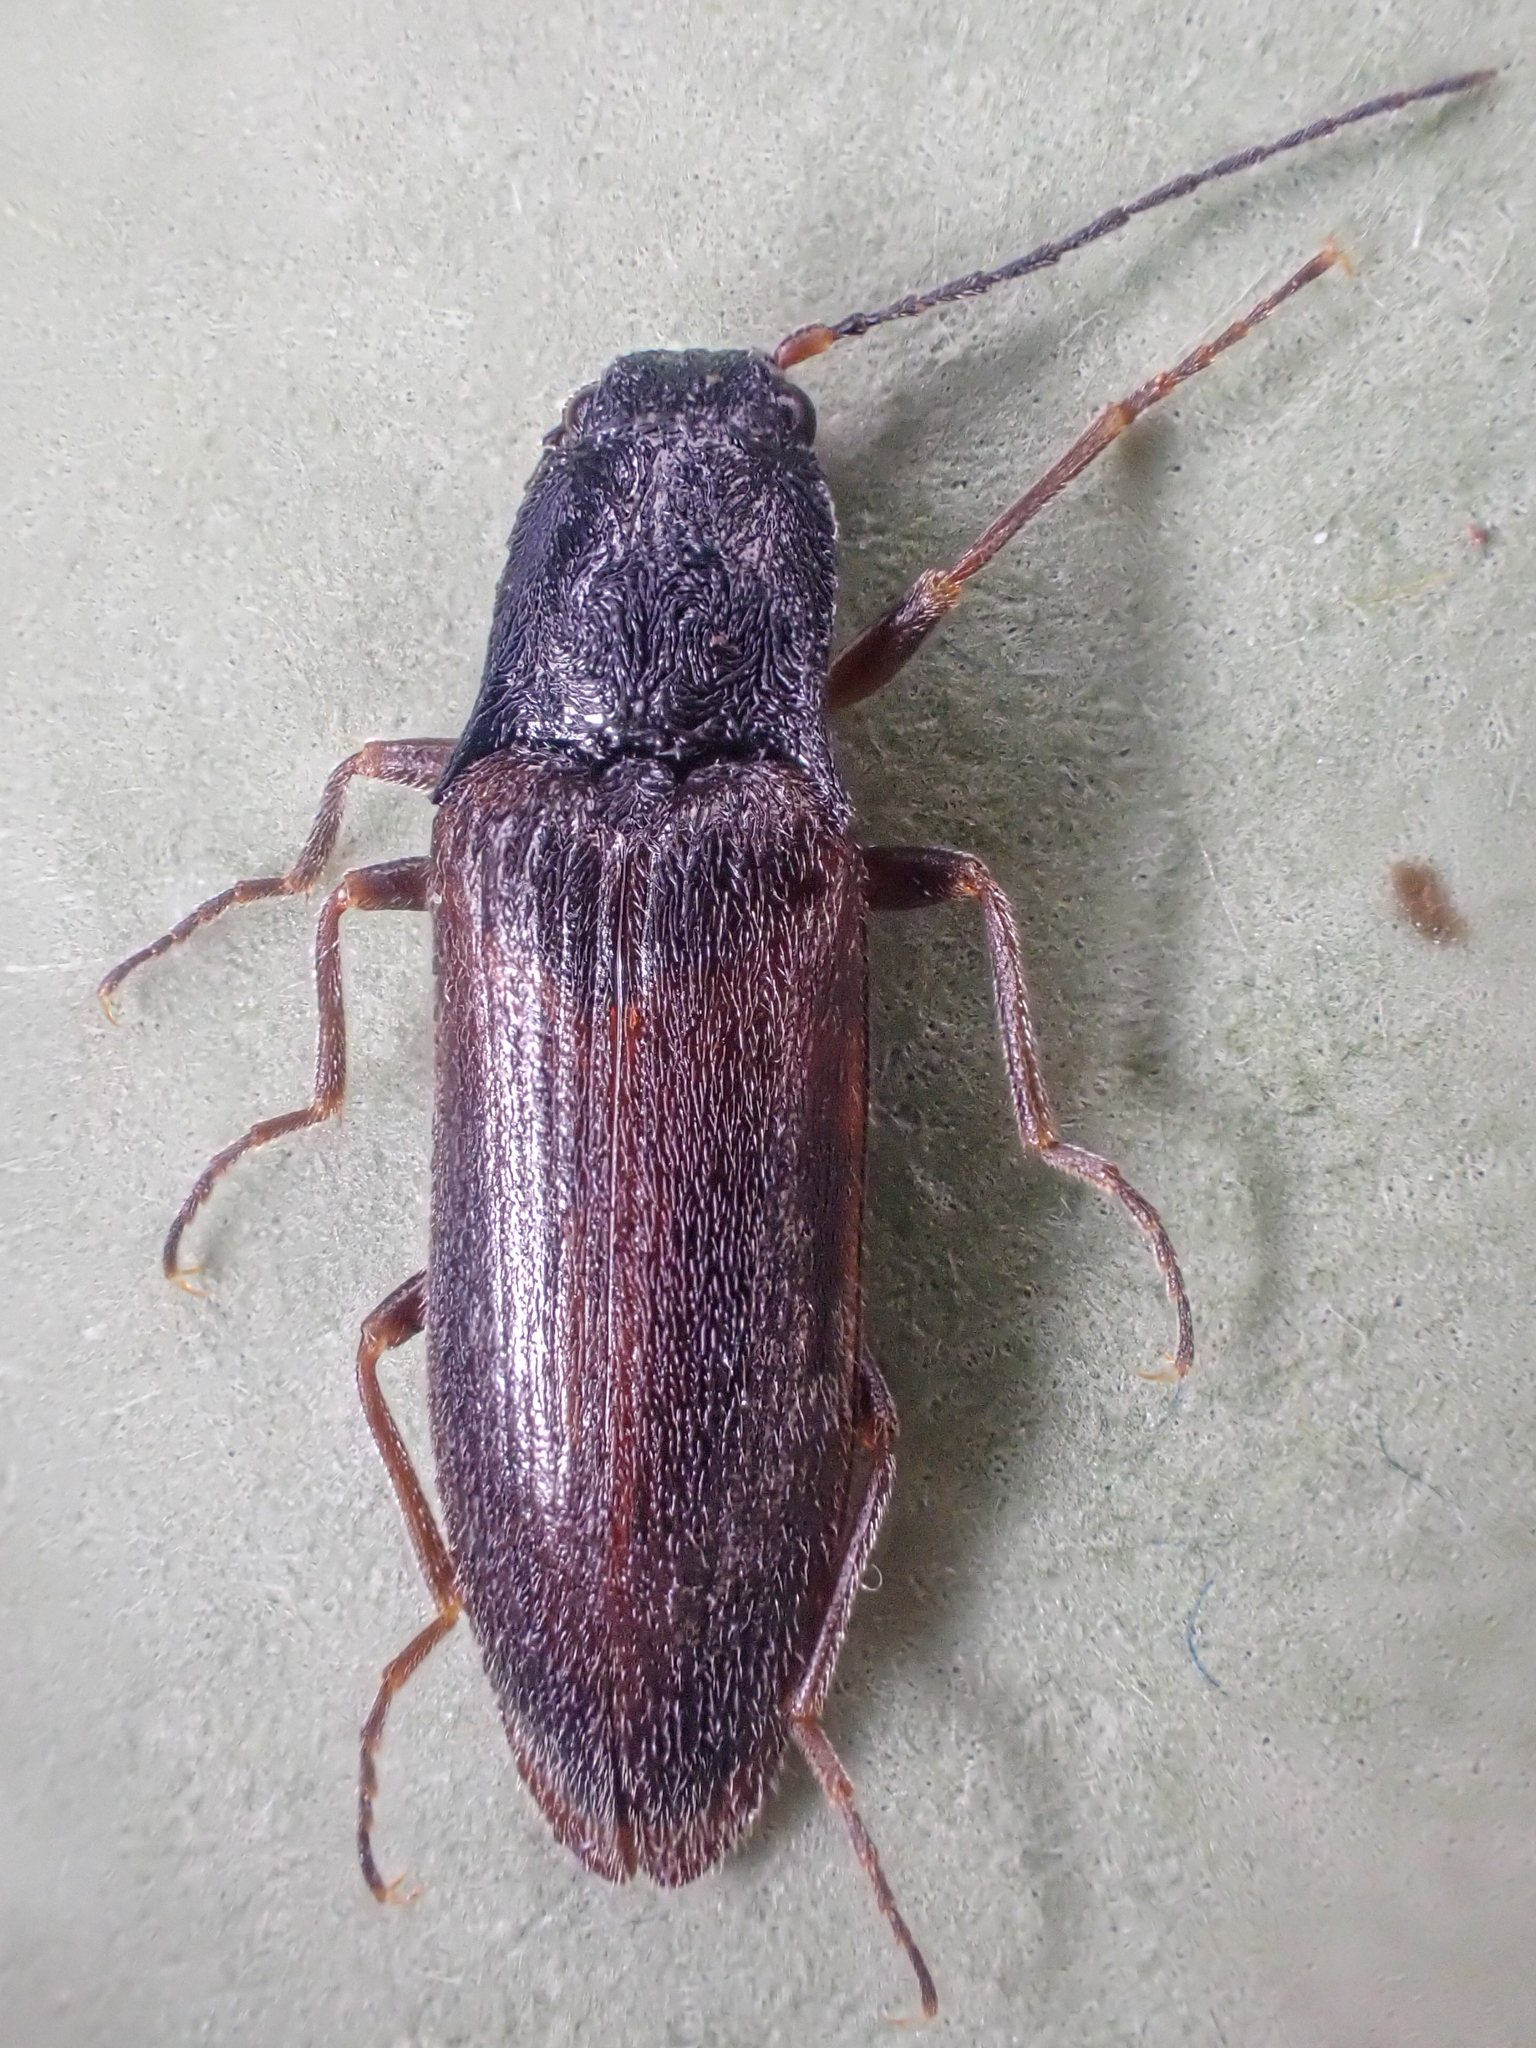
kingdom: Animalia
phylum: Arthropoda
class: Insecta
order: Coleoptera
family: Elateridae
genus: Acteniceromorphus
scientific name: Acteniceromorphus
